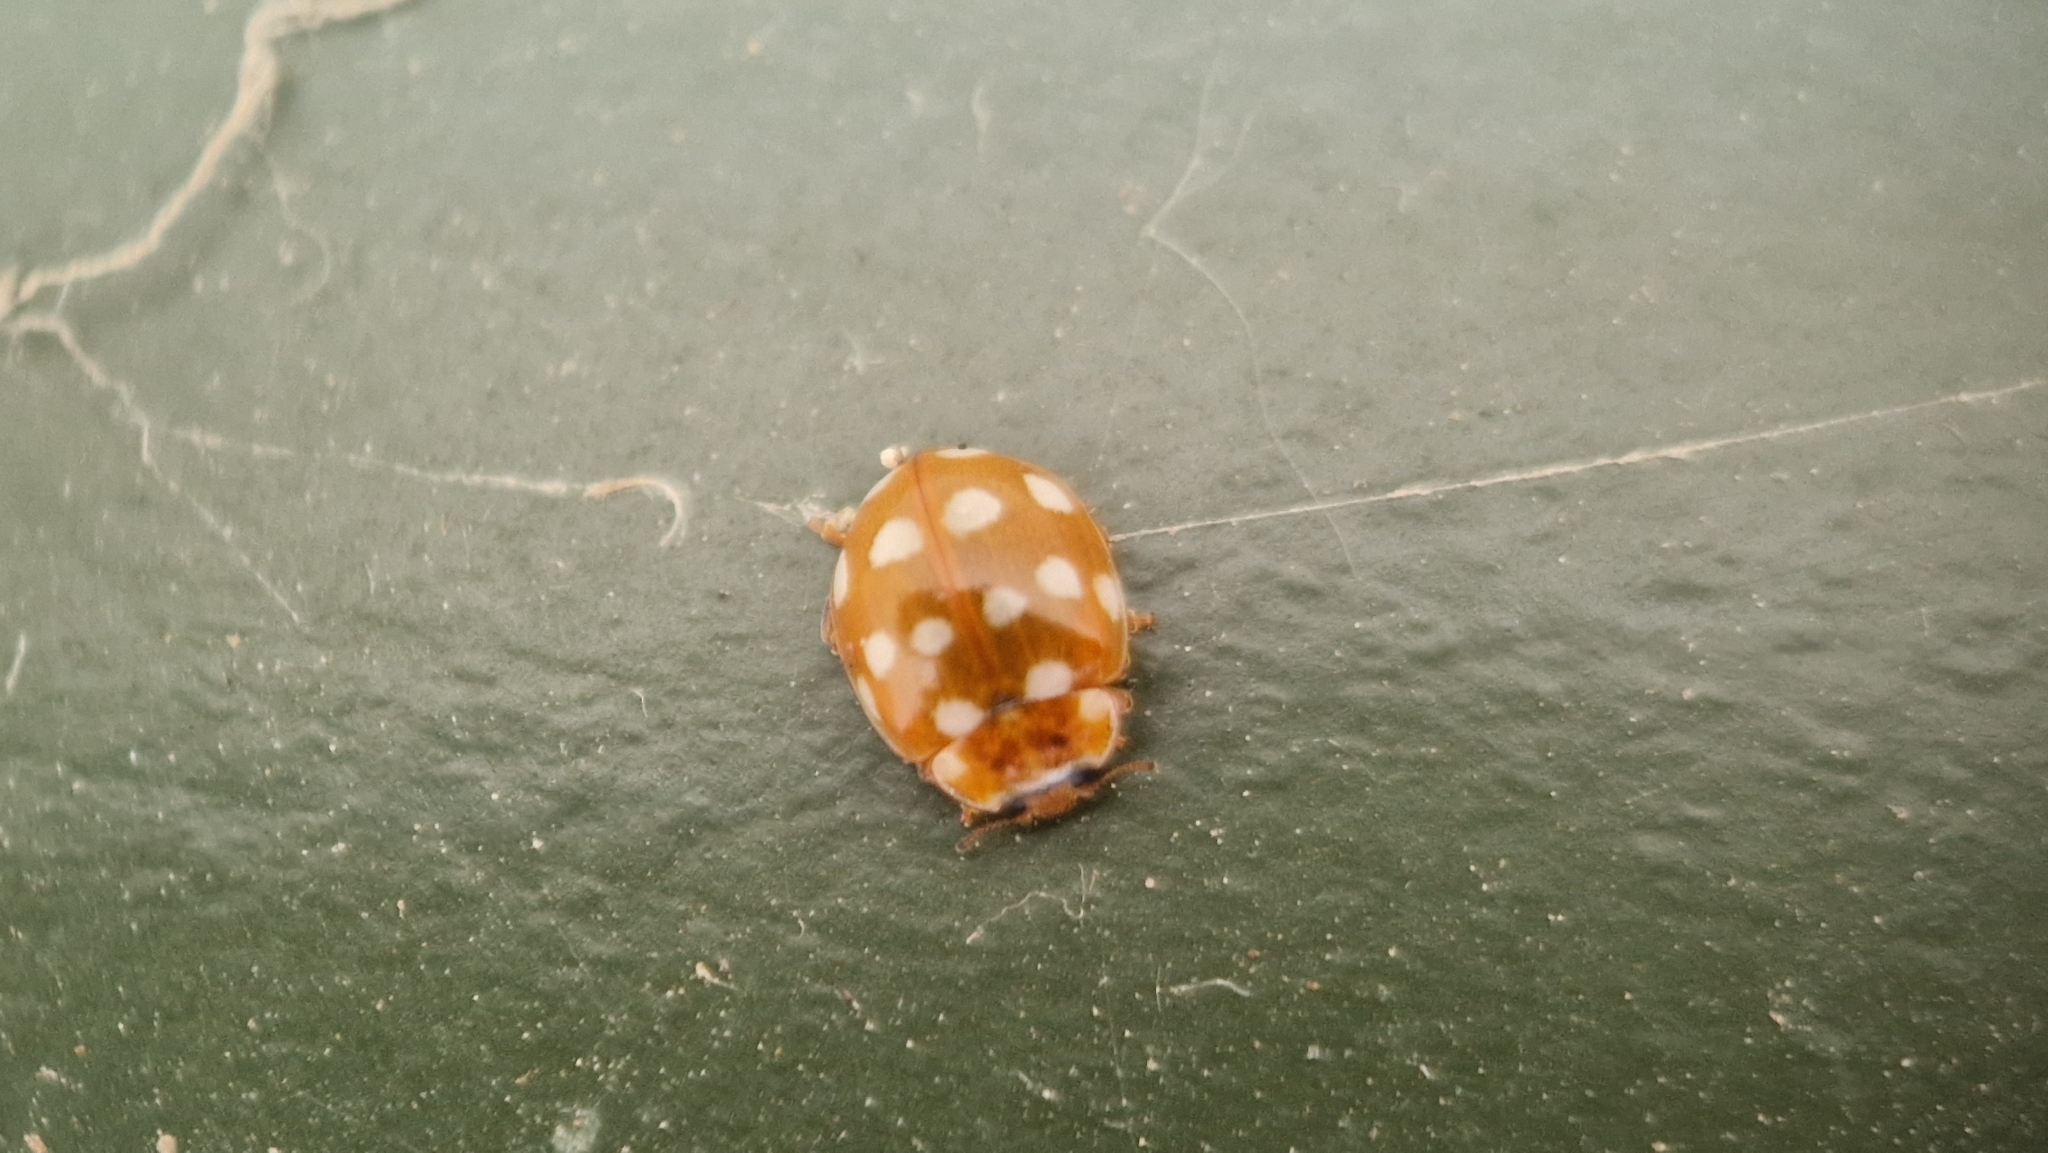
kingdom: Animalia
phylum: Arthropoda
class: Insecta
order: Coleoptera
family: Coccinellidae
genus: Calvia
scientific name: Calvia quatuordecimguttata
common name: Cream-spot ladybird
